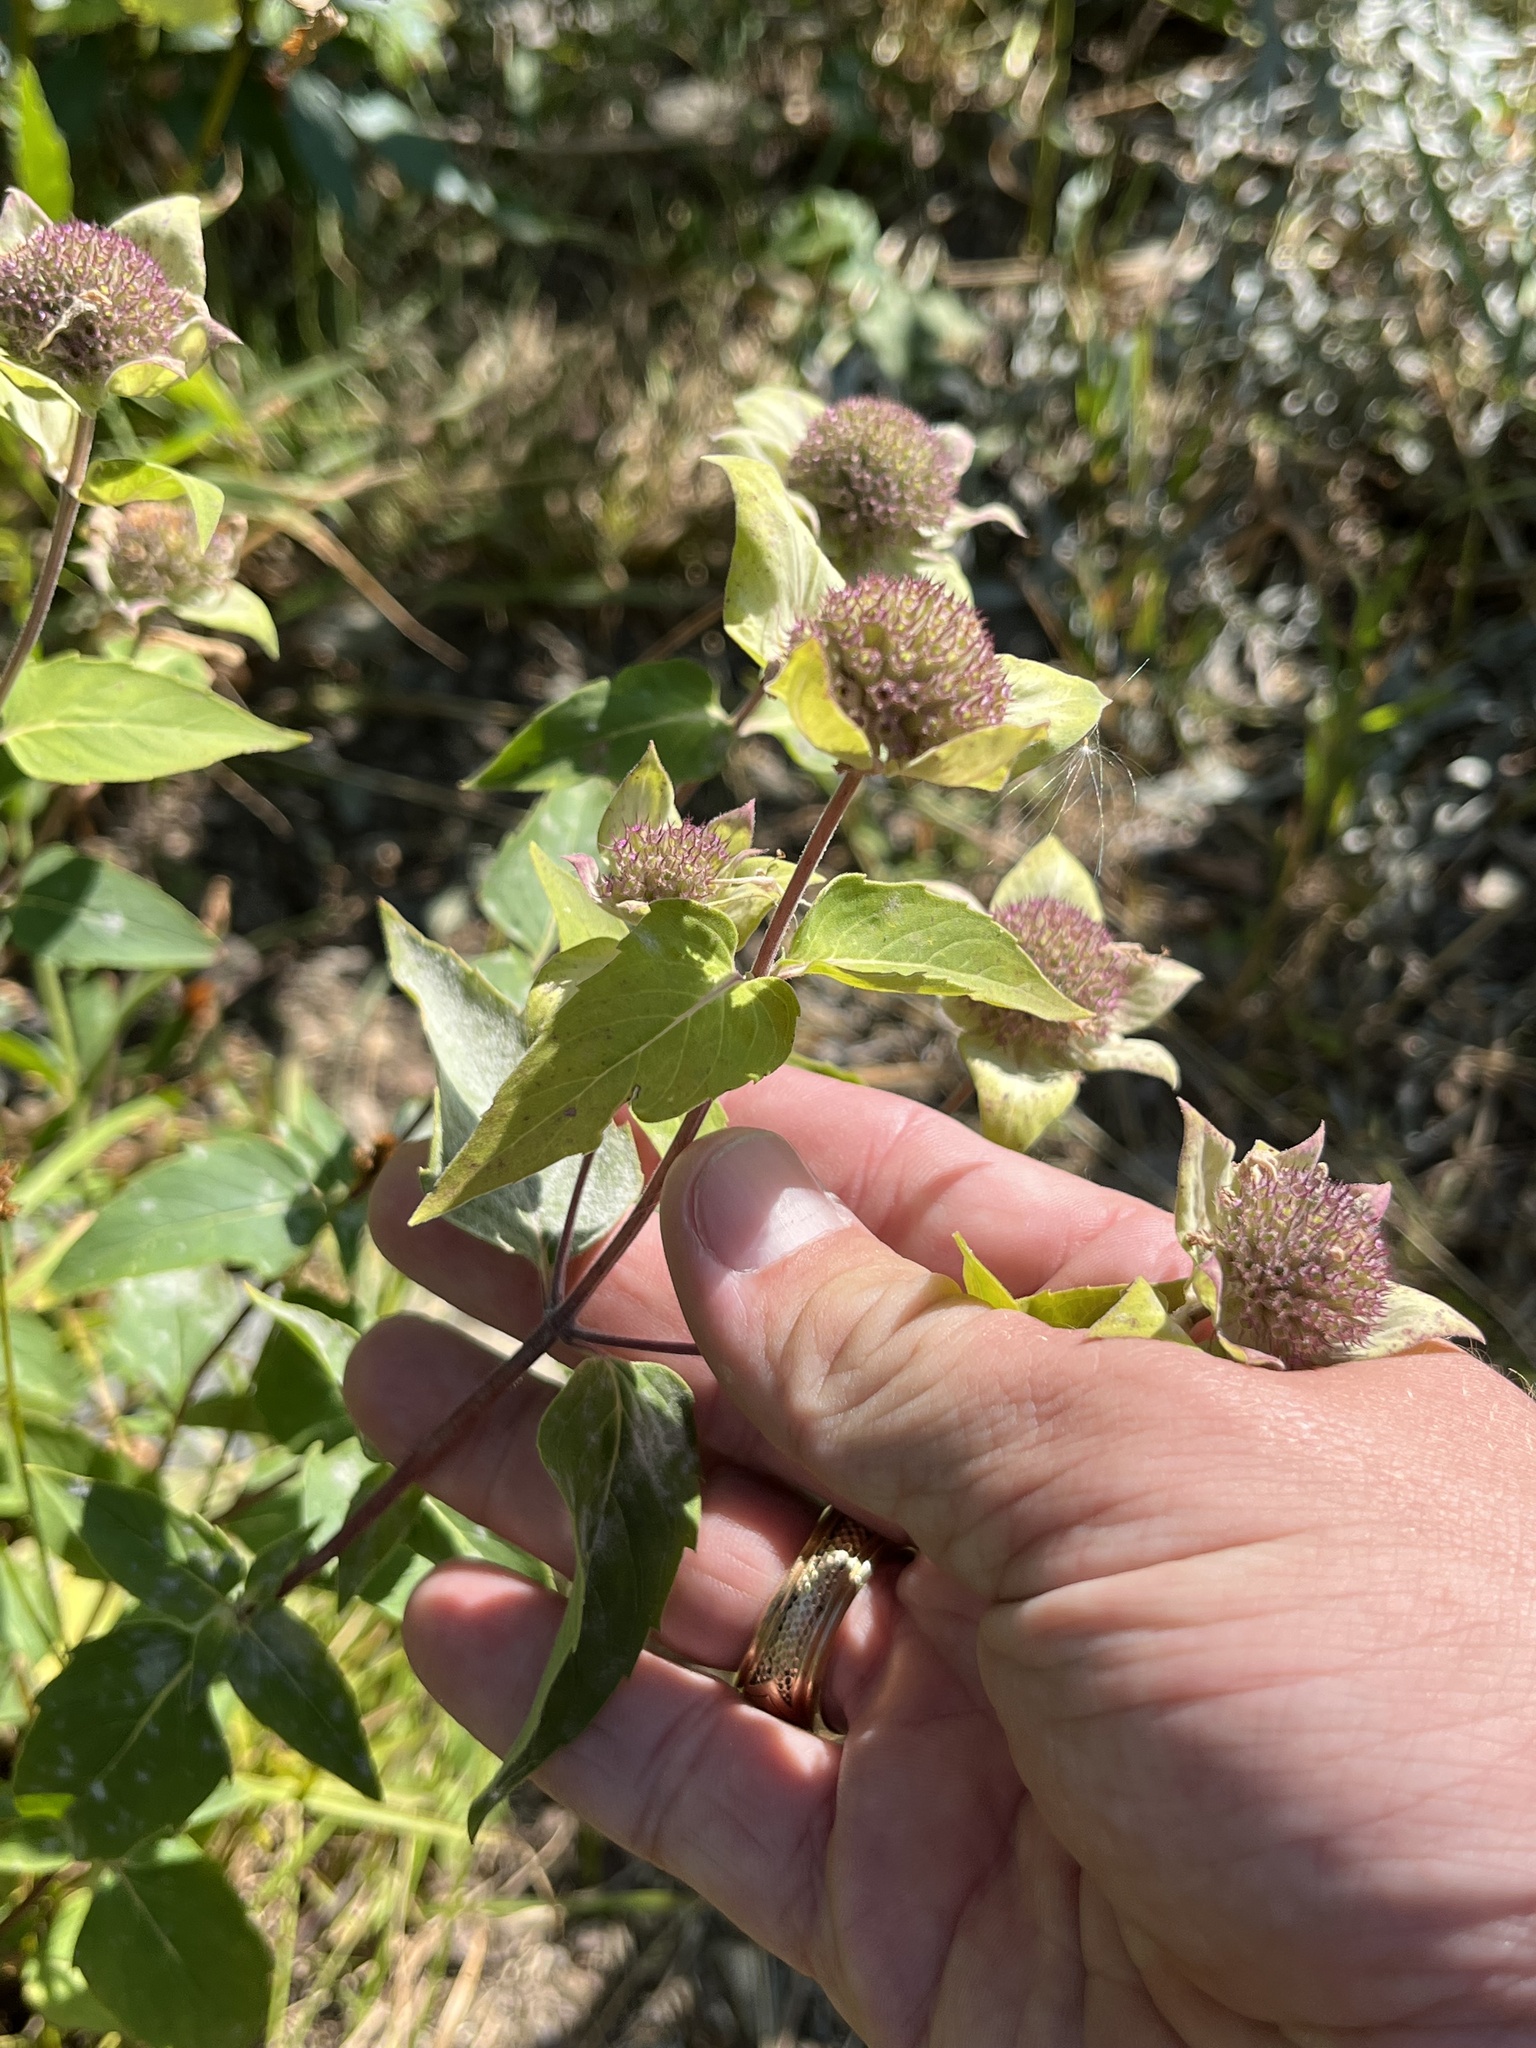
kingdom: Plantae
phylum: Tracheophyta
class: Magnoliopsida
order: Lamiales
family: Lamiaceae
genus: Monarda
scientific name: Monarda fistulosa
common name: Purple beebalm
